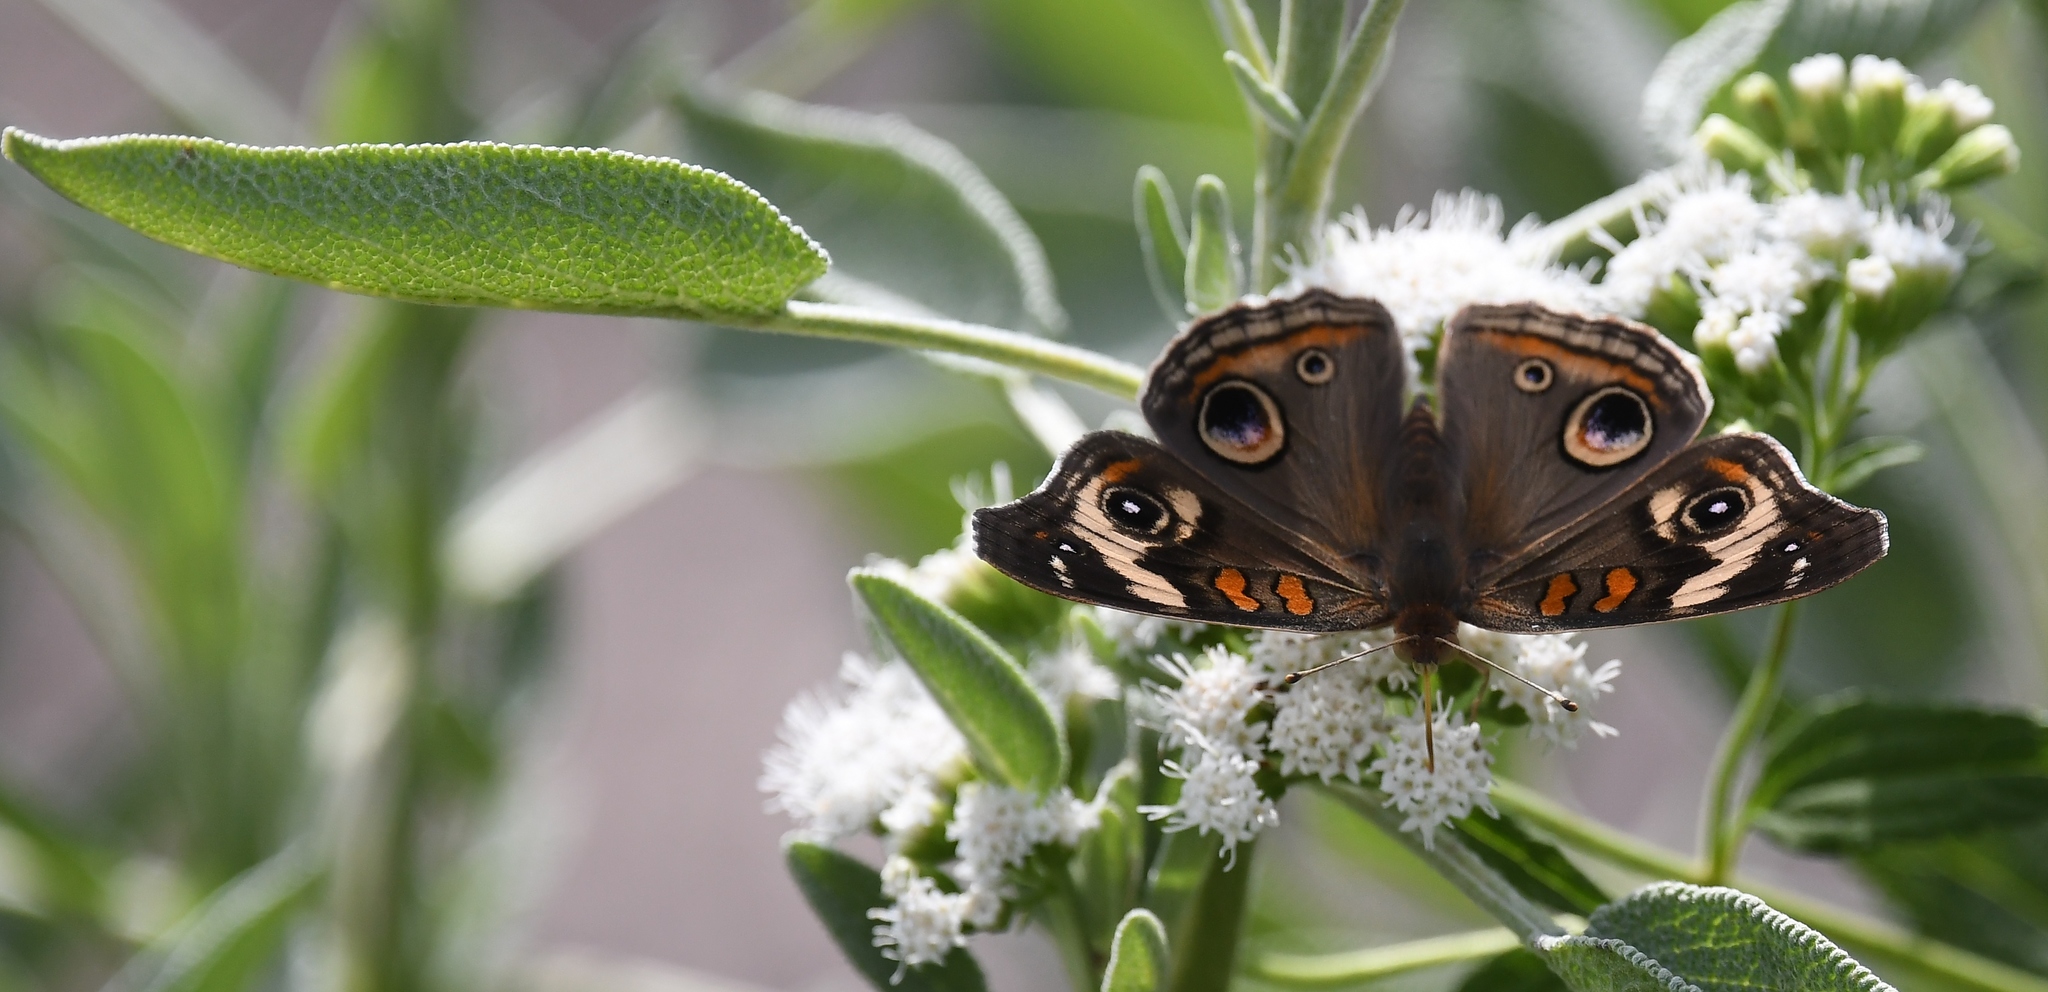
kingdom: Animalia
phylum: Arthropoda
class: Insecta
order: Lepidoptera
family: Nymphalidae
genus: Junonia
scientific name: Junonia coenia
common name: Common buckeye
